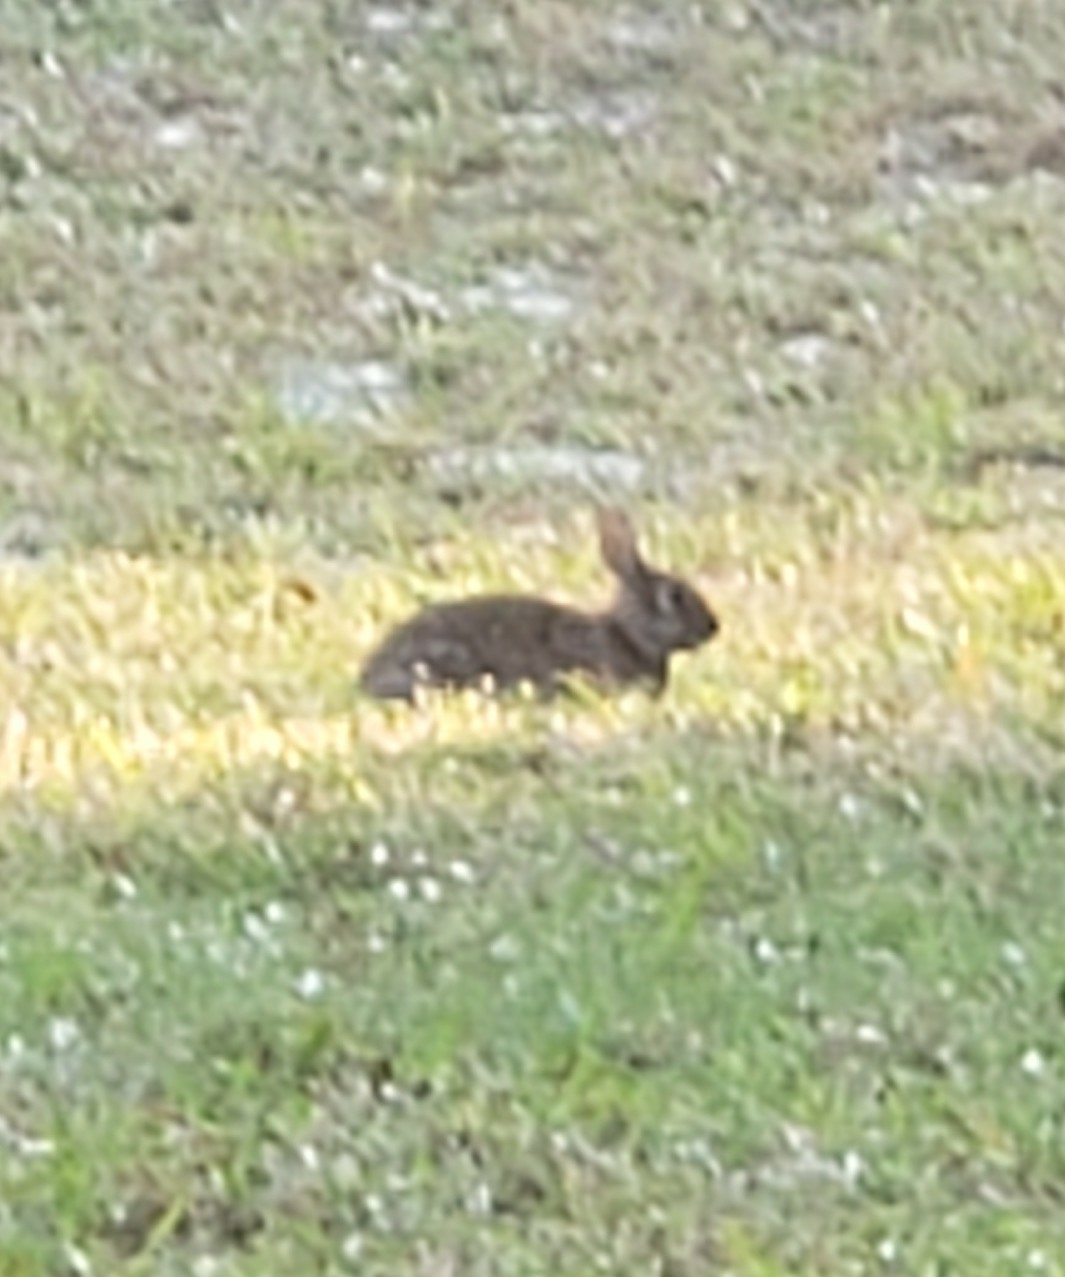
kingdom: Animalia
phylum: Chordata
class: Mammalia
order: Lagomorpha
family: Leporidae
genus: Sylvilagus
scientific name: Sylvilagus floridanus
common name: Eastern cottontail
